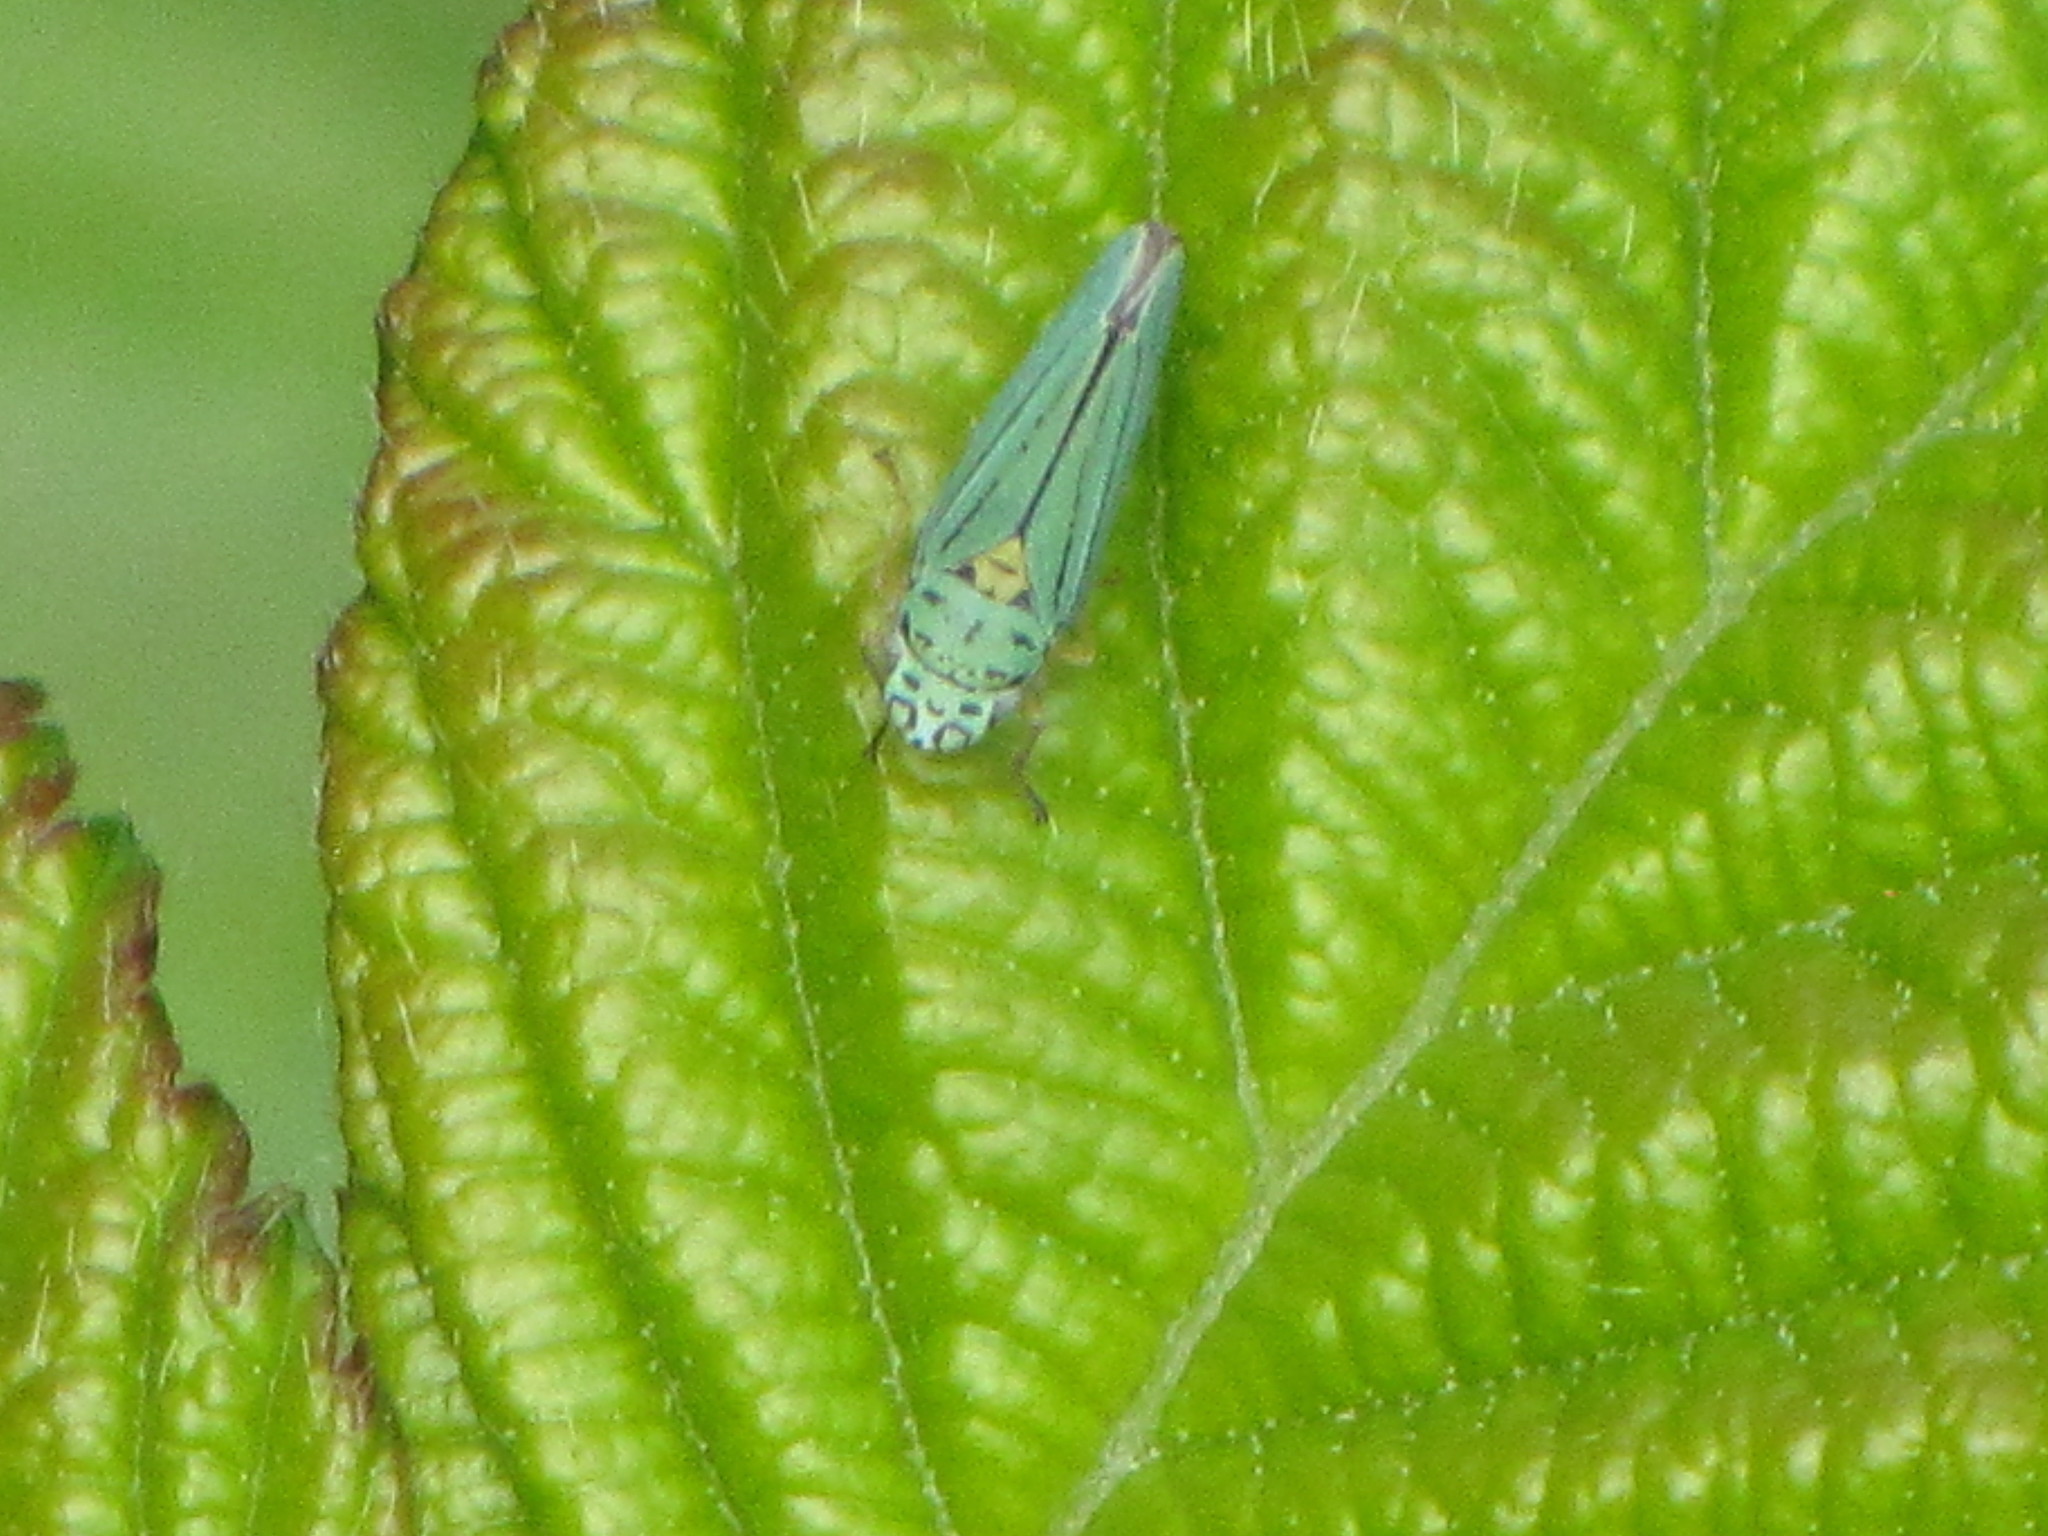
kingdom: Animalia
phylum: Arthropoda
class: Insecta
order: Hemiptera
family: Cicadellidae
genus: Graphocephala
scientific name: Graphocephala atropunctata
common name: Blue-green sharpshooter
